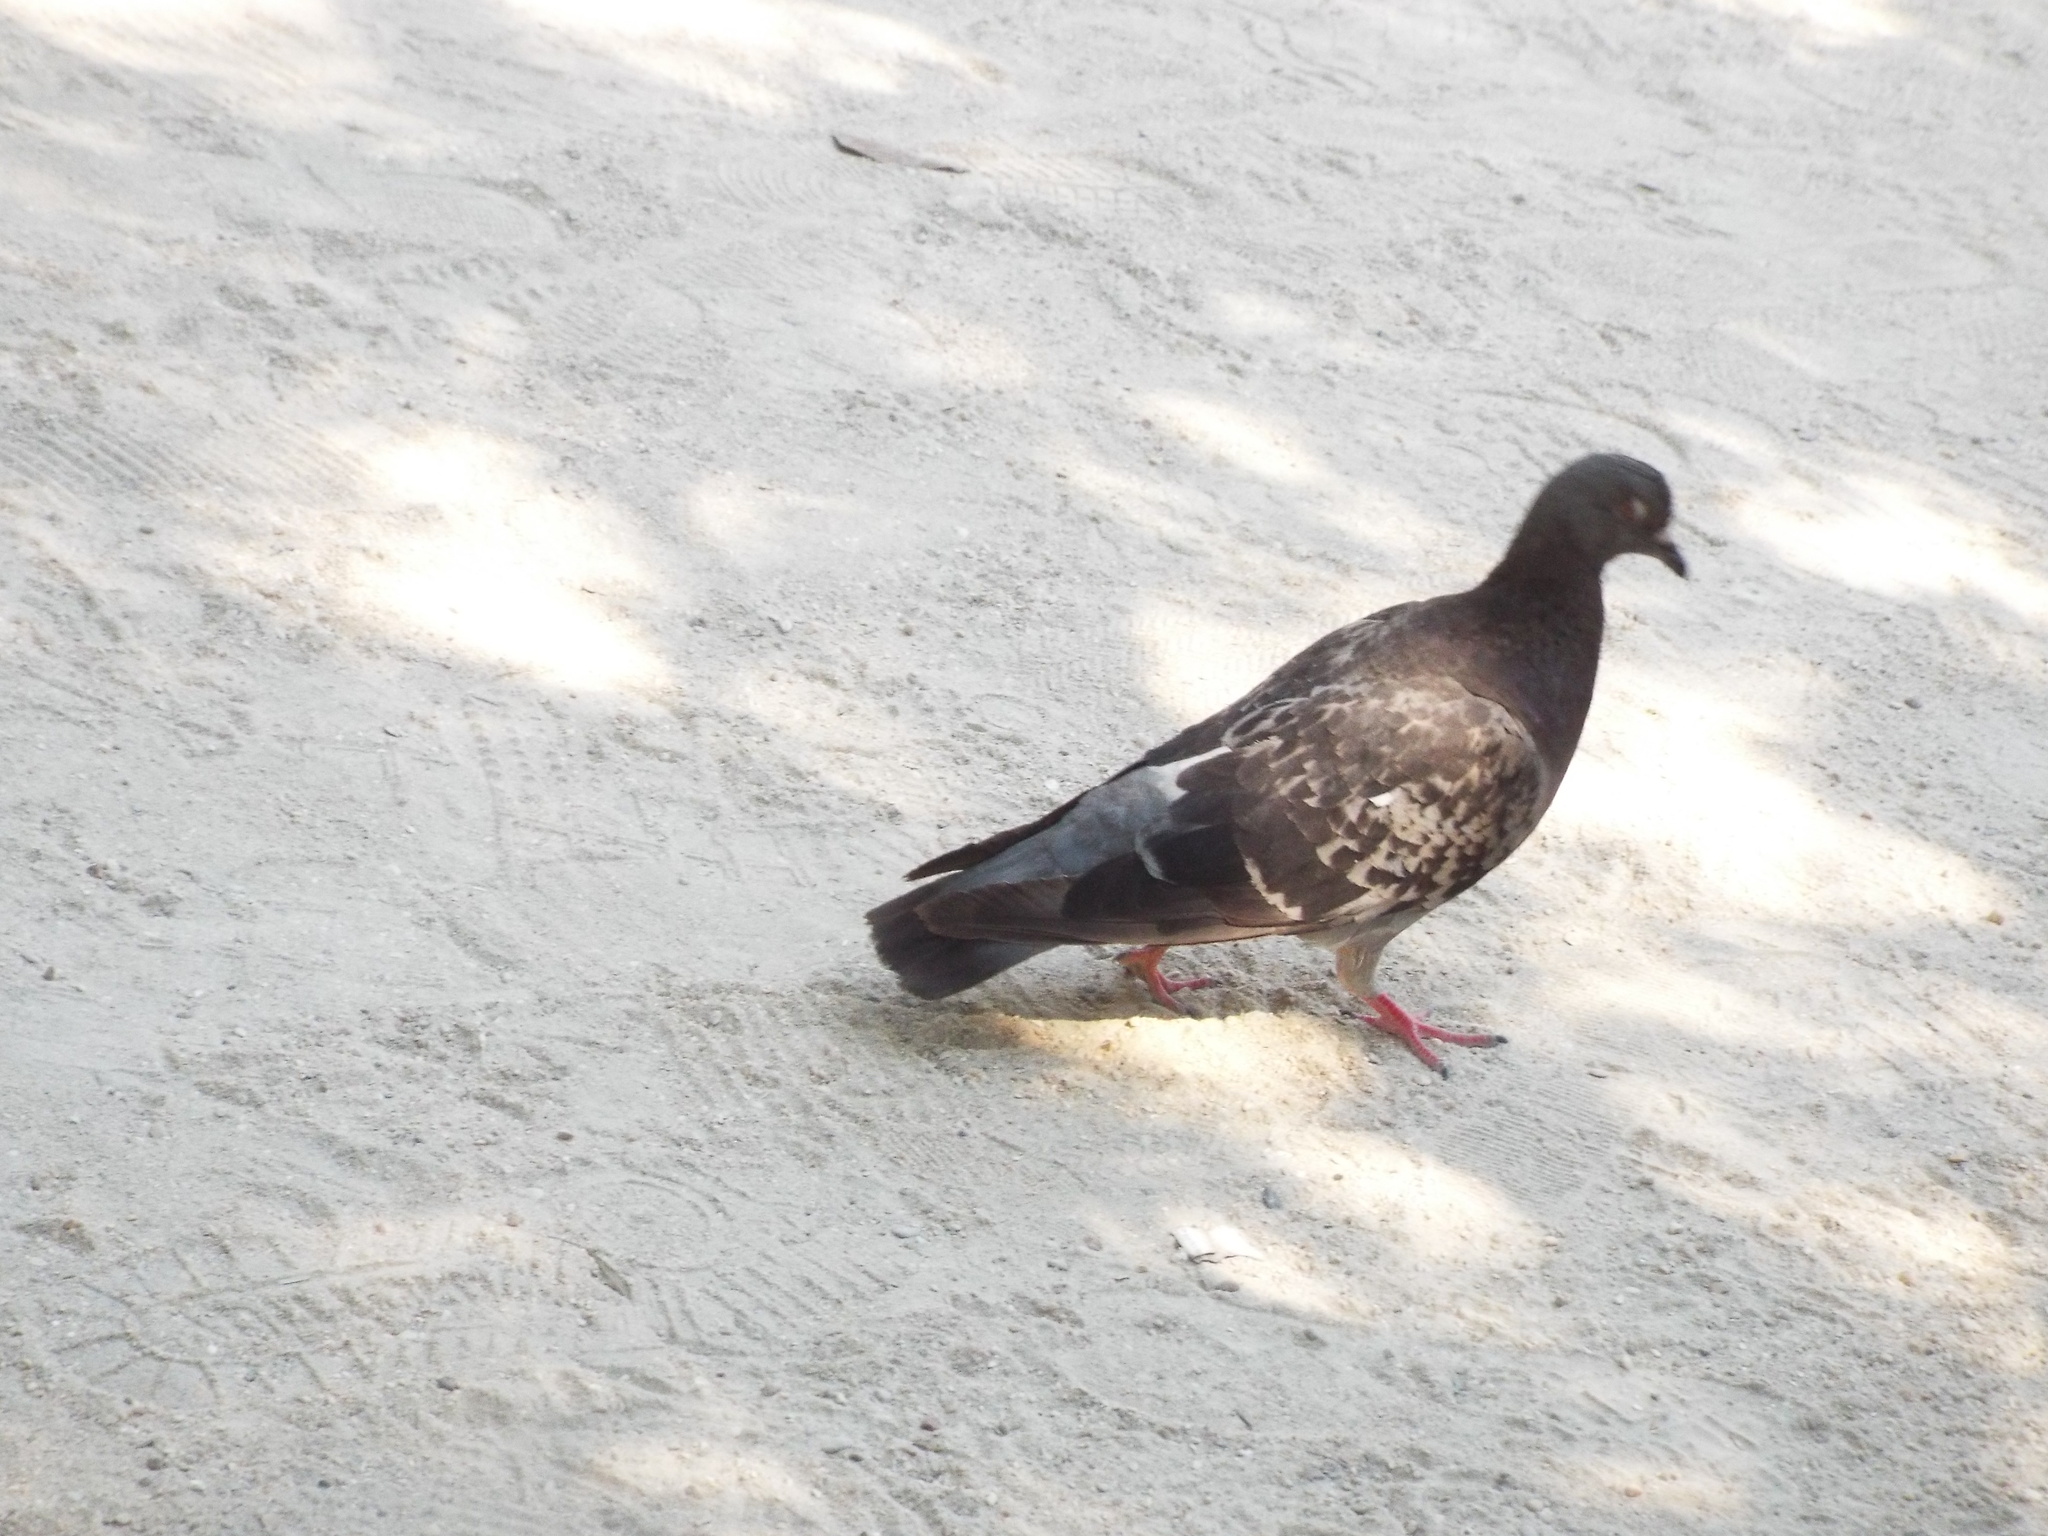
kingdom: Animalia
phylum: Chordata
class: Aves
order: Columbiformes
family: Columbidae
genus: Columba
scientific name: Columba livia
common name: Rock pigeon
